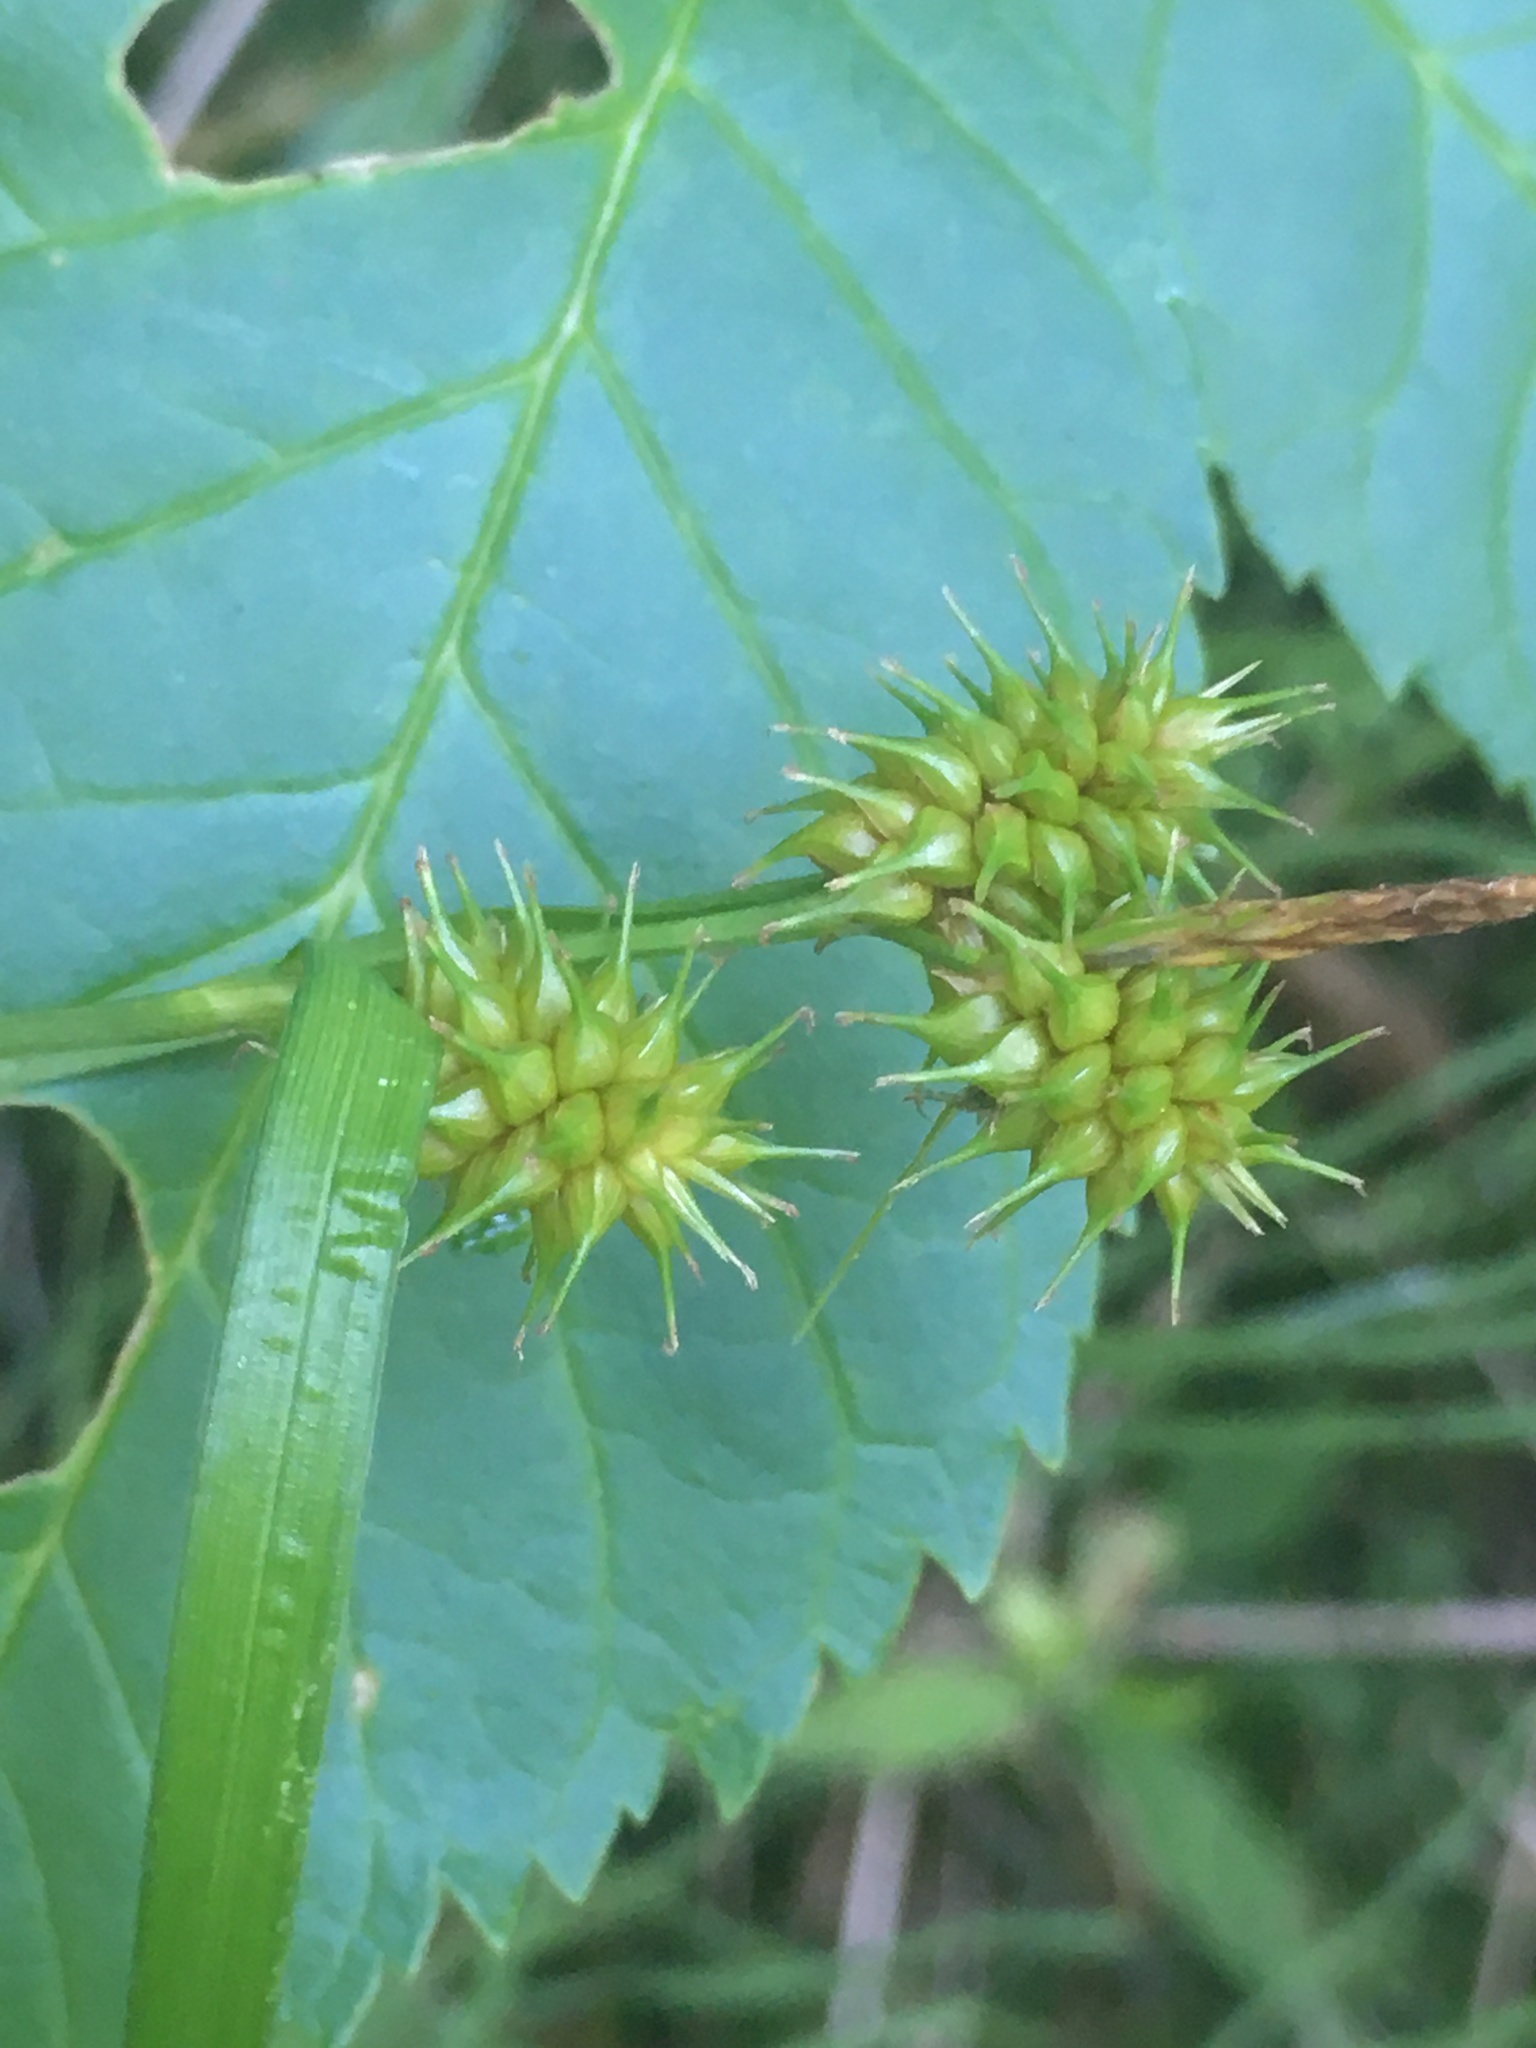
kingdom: Plantae
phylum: Tracheophyta
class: Liliopsida
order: Poales
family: Cyperaceae
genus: Carex
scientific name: Carex flava
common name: Large yellow-sedge
